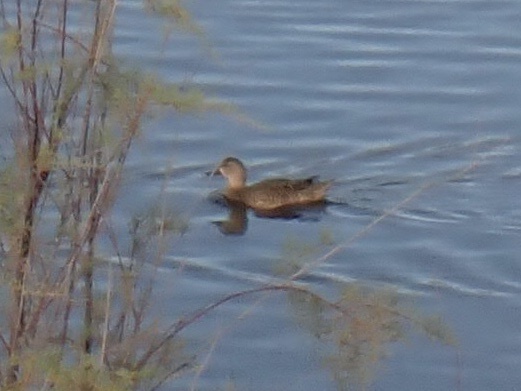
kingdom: Animalia
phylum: Chordata
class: Aves
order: Anseriformes
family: Anatidae
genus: Spatula
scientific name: Spatula discors
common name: Blue-winged teal
